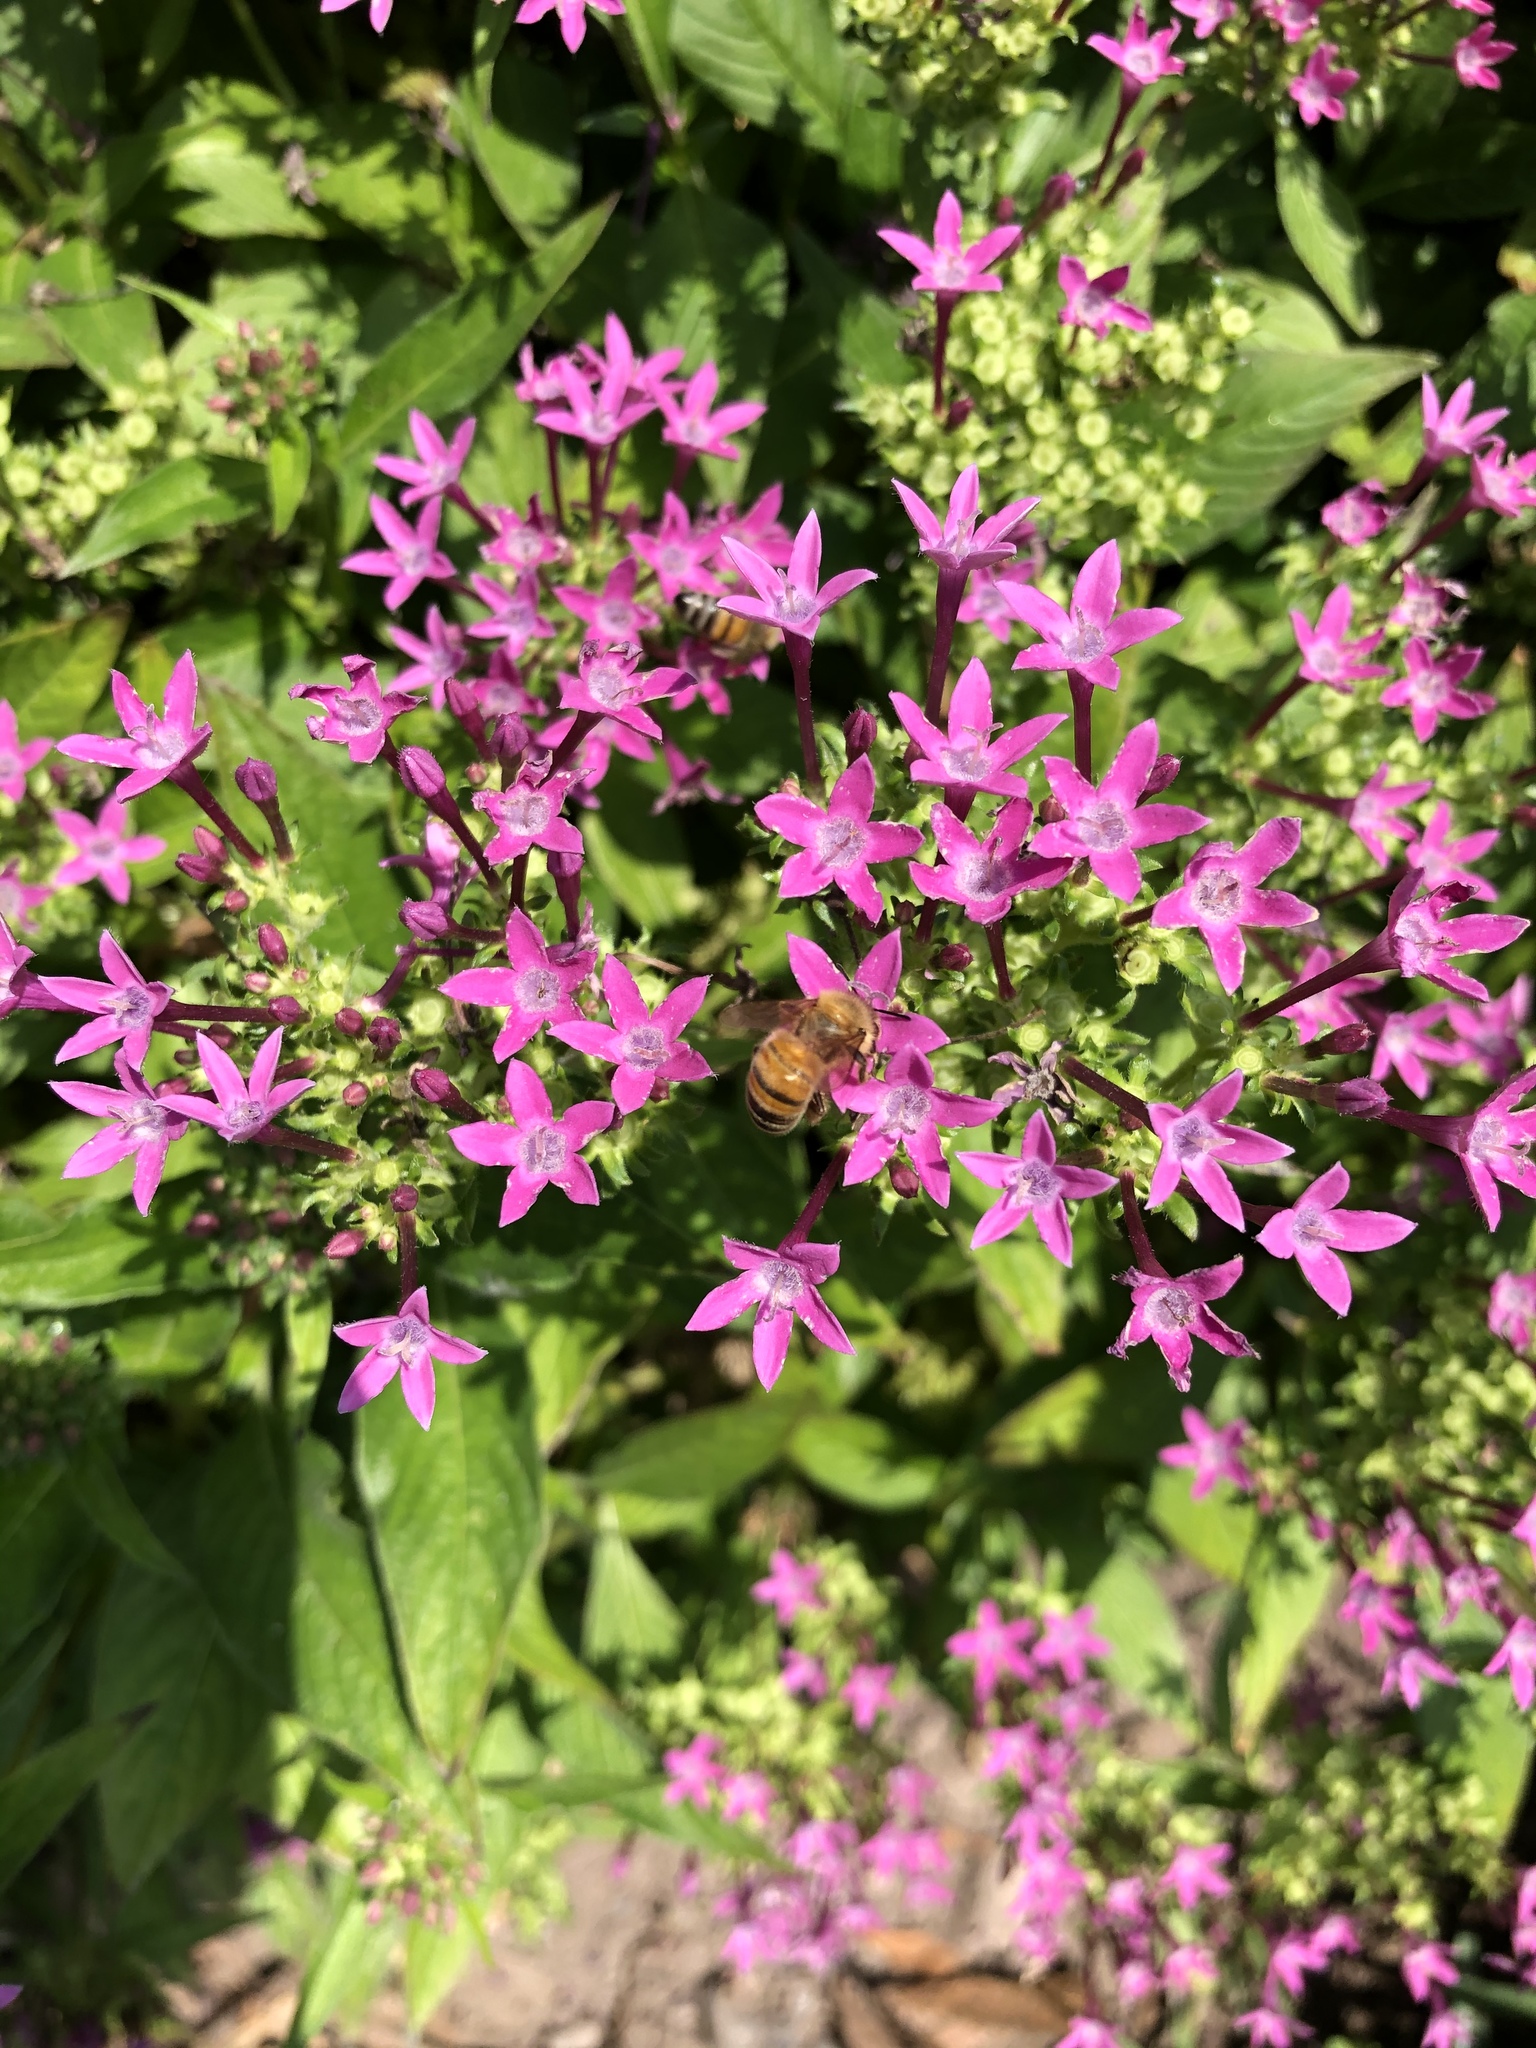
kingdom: Animalia
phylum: Arthropoda
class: Insecta
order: Hymenoptera
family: Apidae
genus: Apis
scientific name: Apis mellifera
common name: Honey bee
